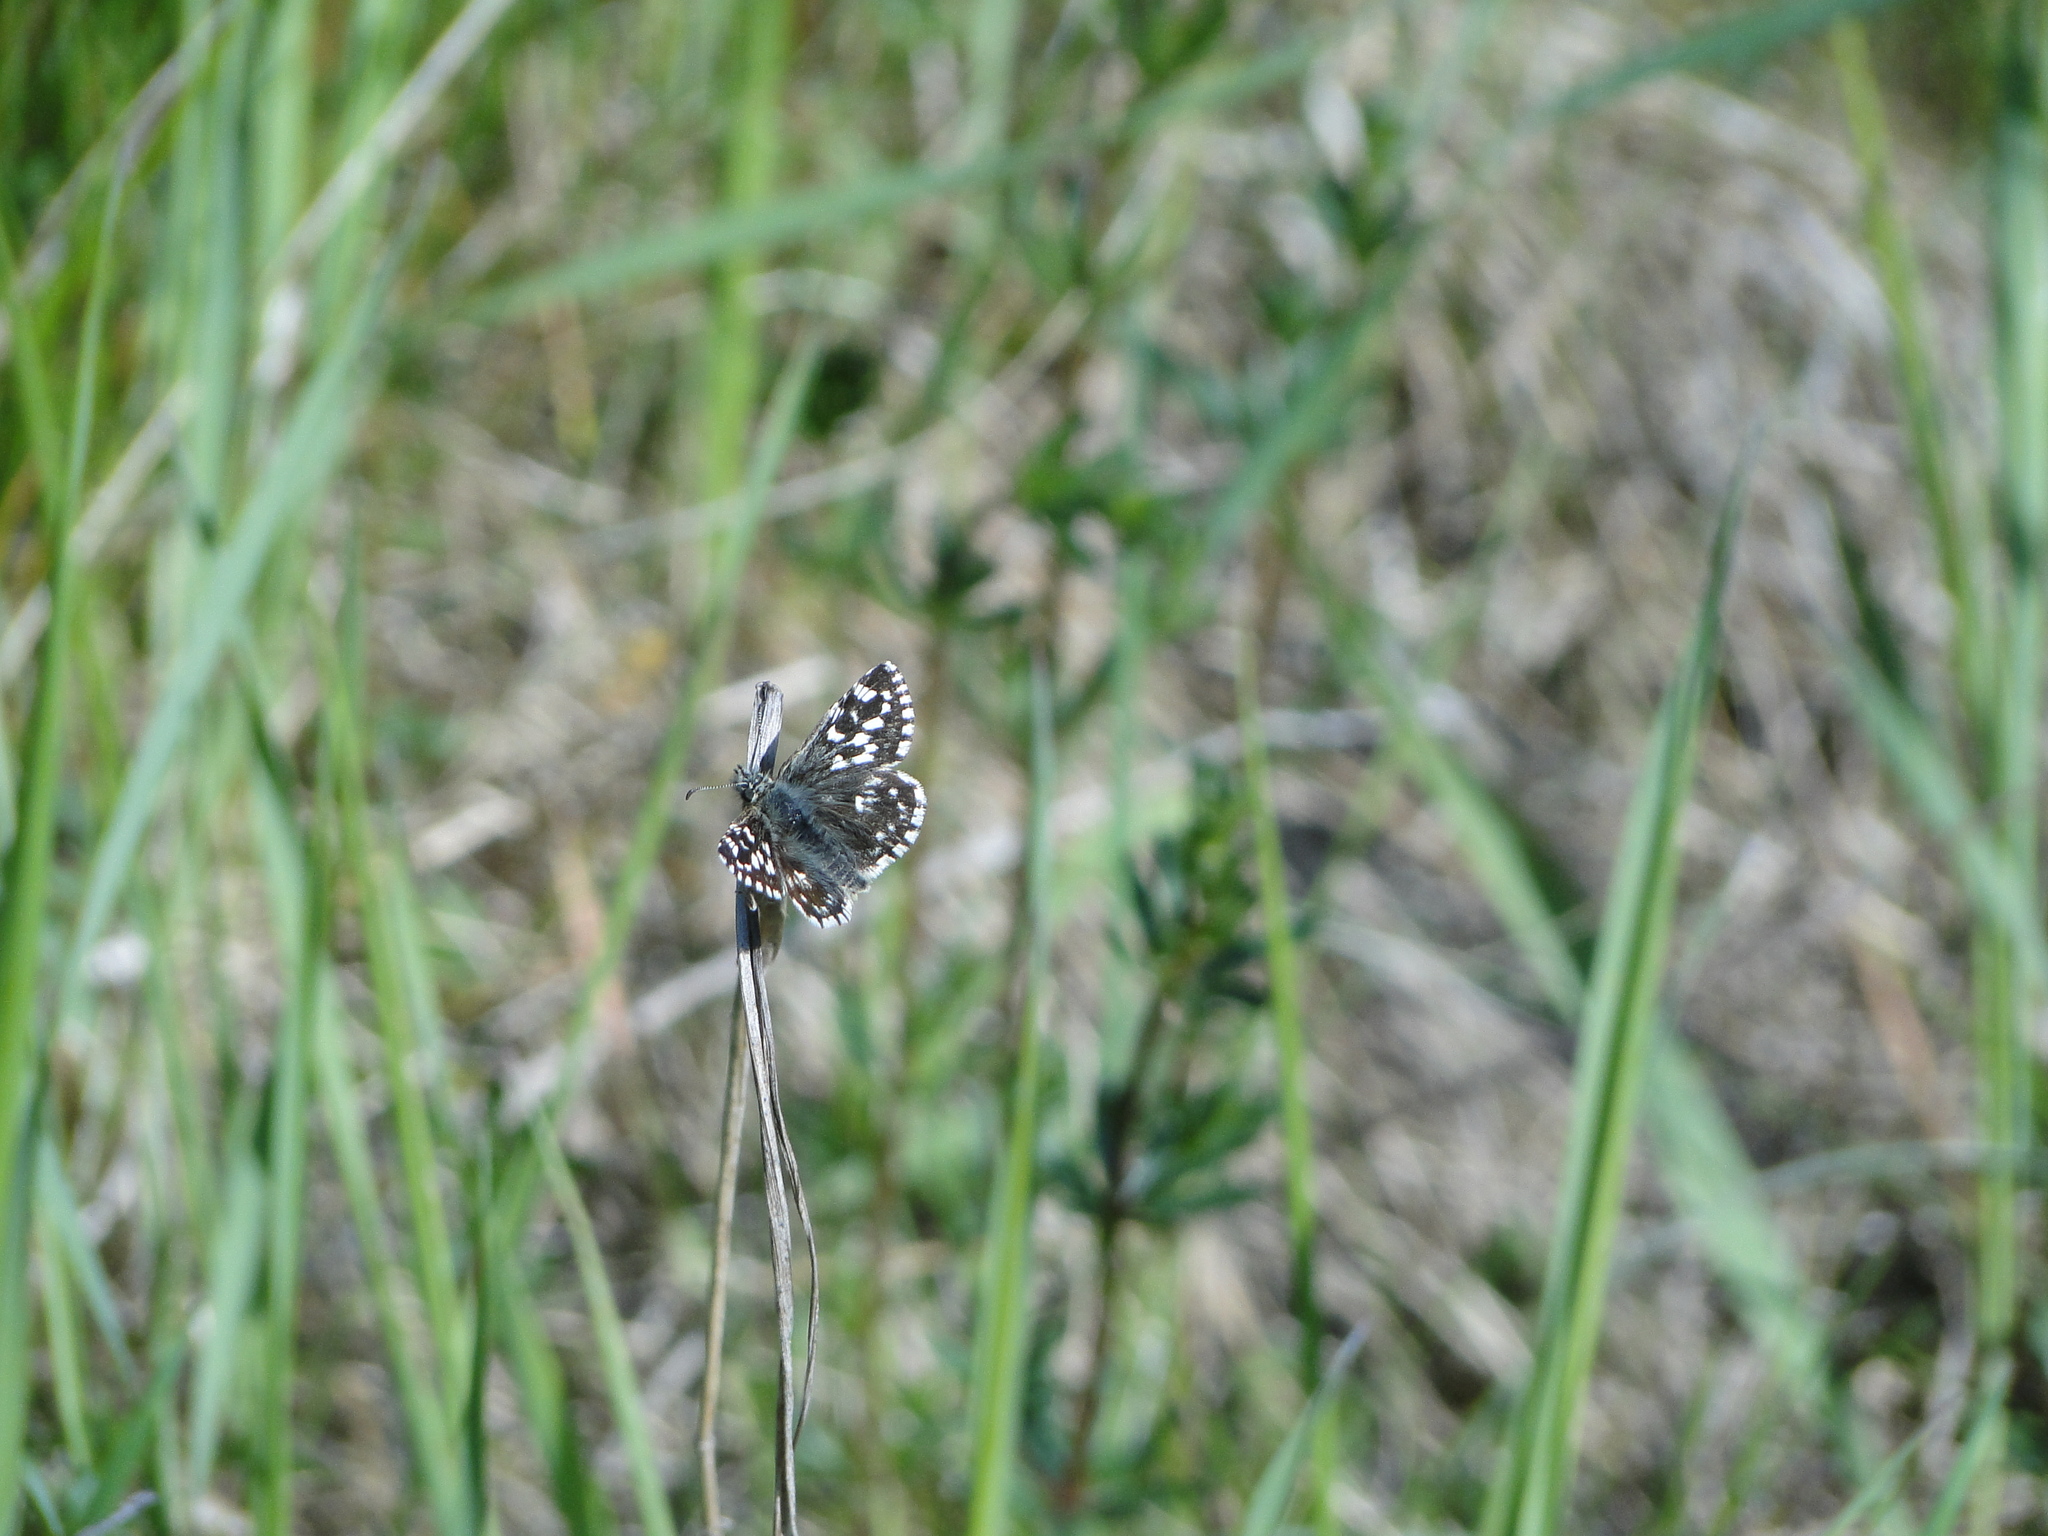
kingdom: Animalia
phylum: Arthropoda
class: Insecta
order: Lepidoptera
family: Hesperiidae
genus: Pyrgus
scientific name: Pyrgus malvae
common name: Grizzled skipper
